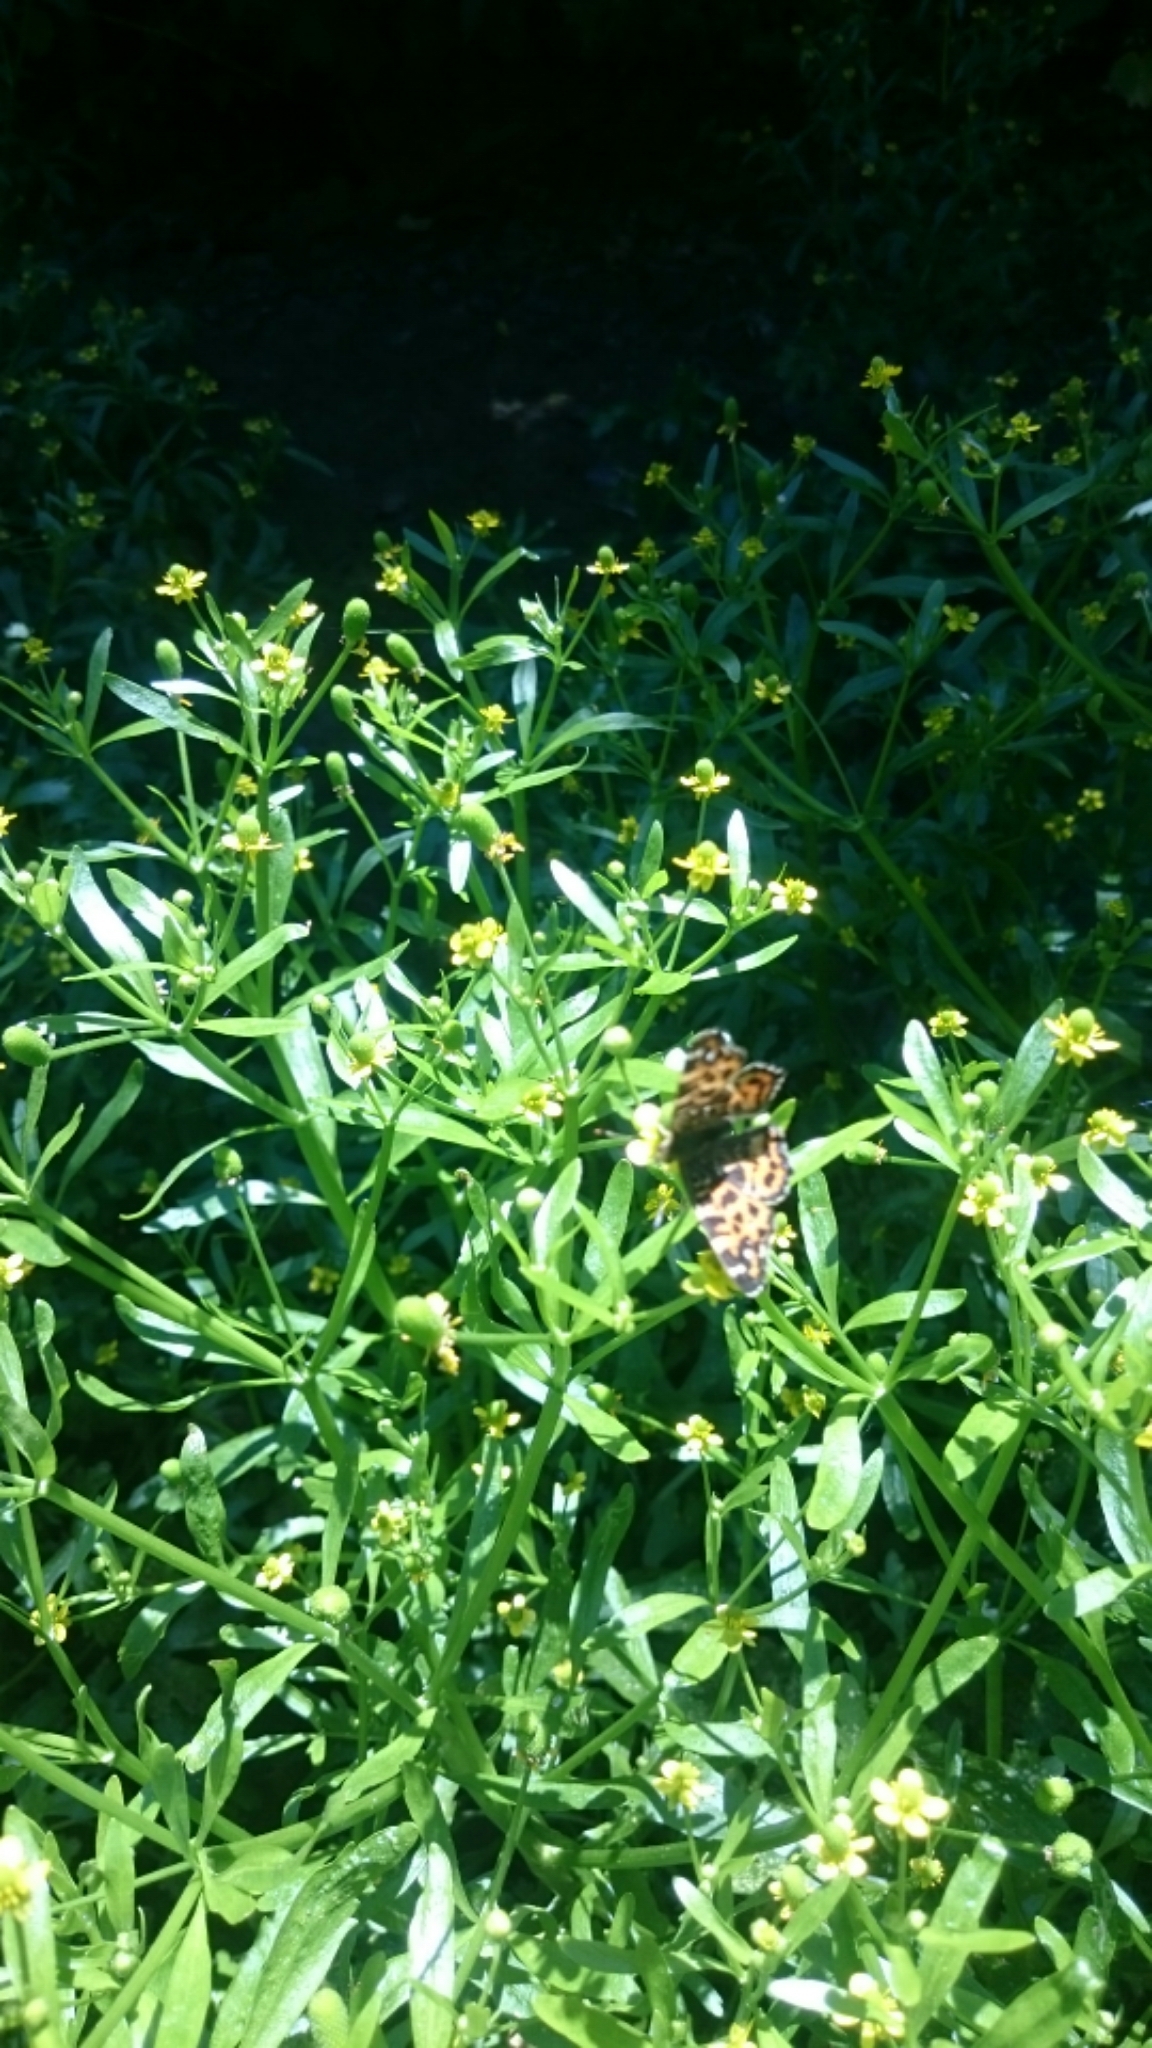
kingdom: Animalia
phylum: Arthropoda
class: Insecta
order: Lepidoptera
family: Nymphalidae
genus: Araschnia
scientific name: Araschnia levana
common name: Map butterfly
